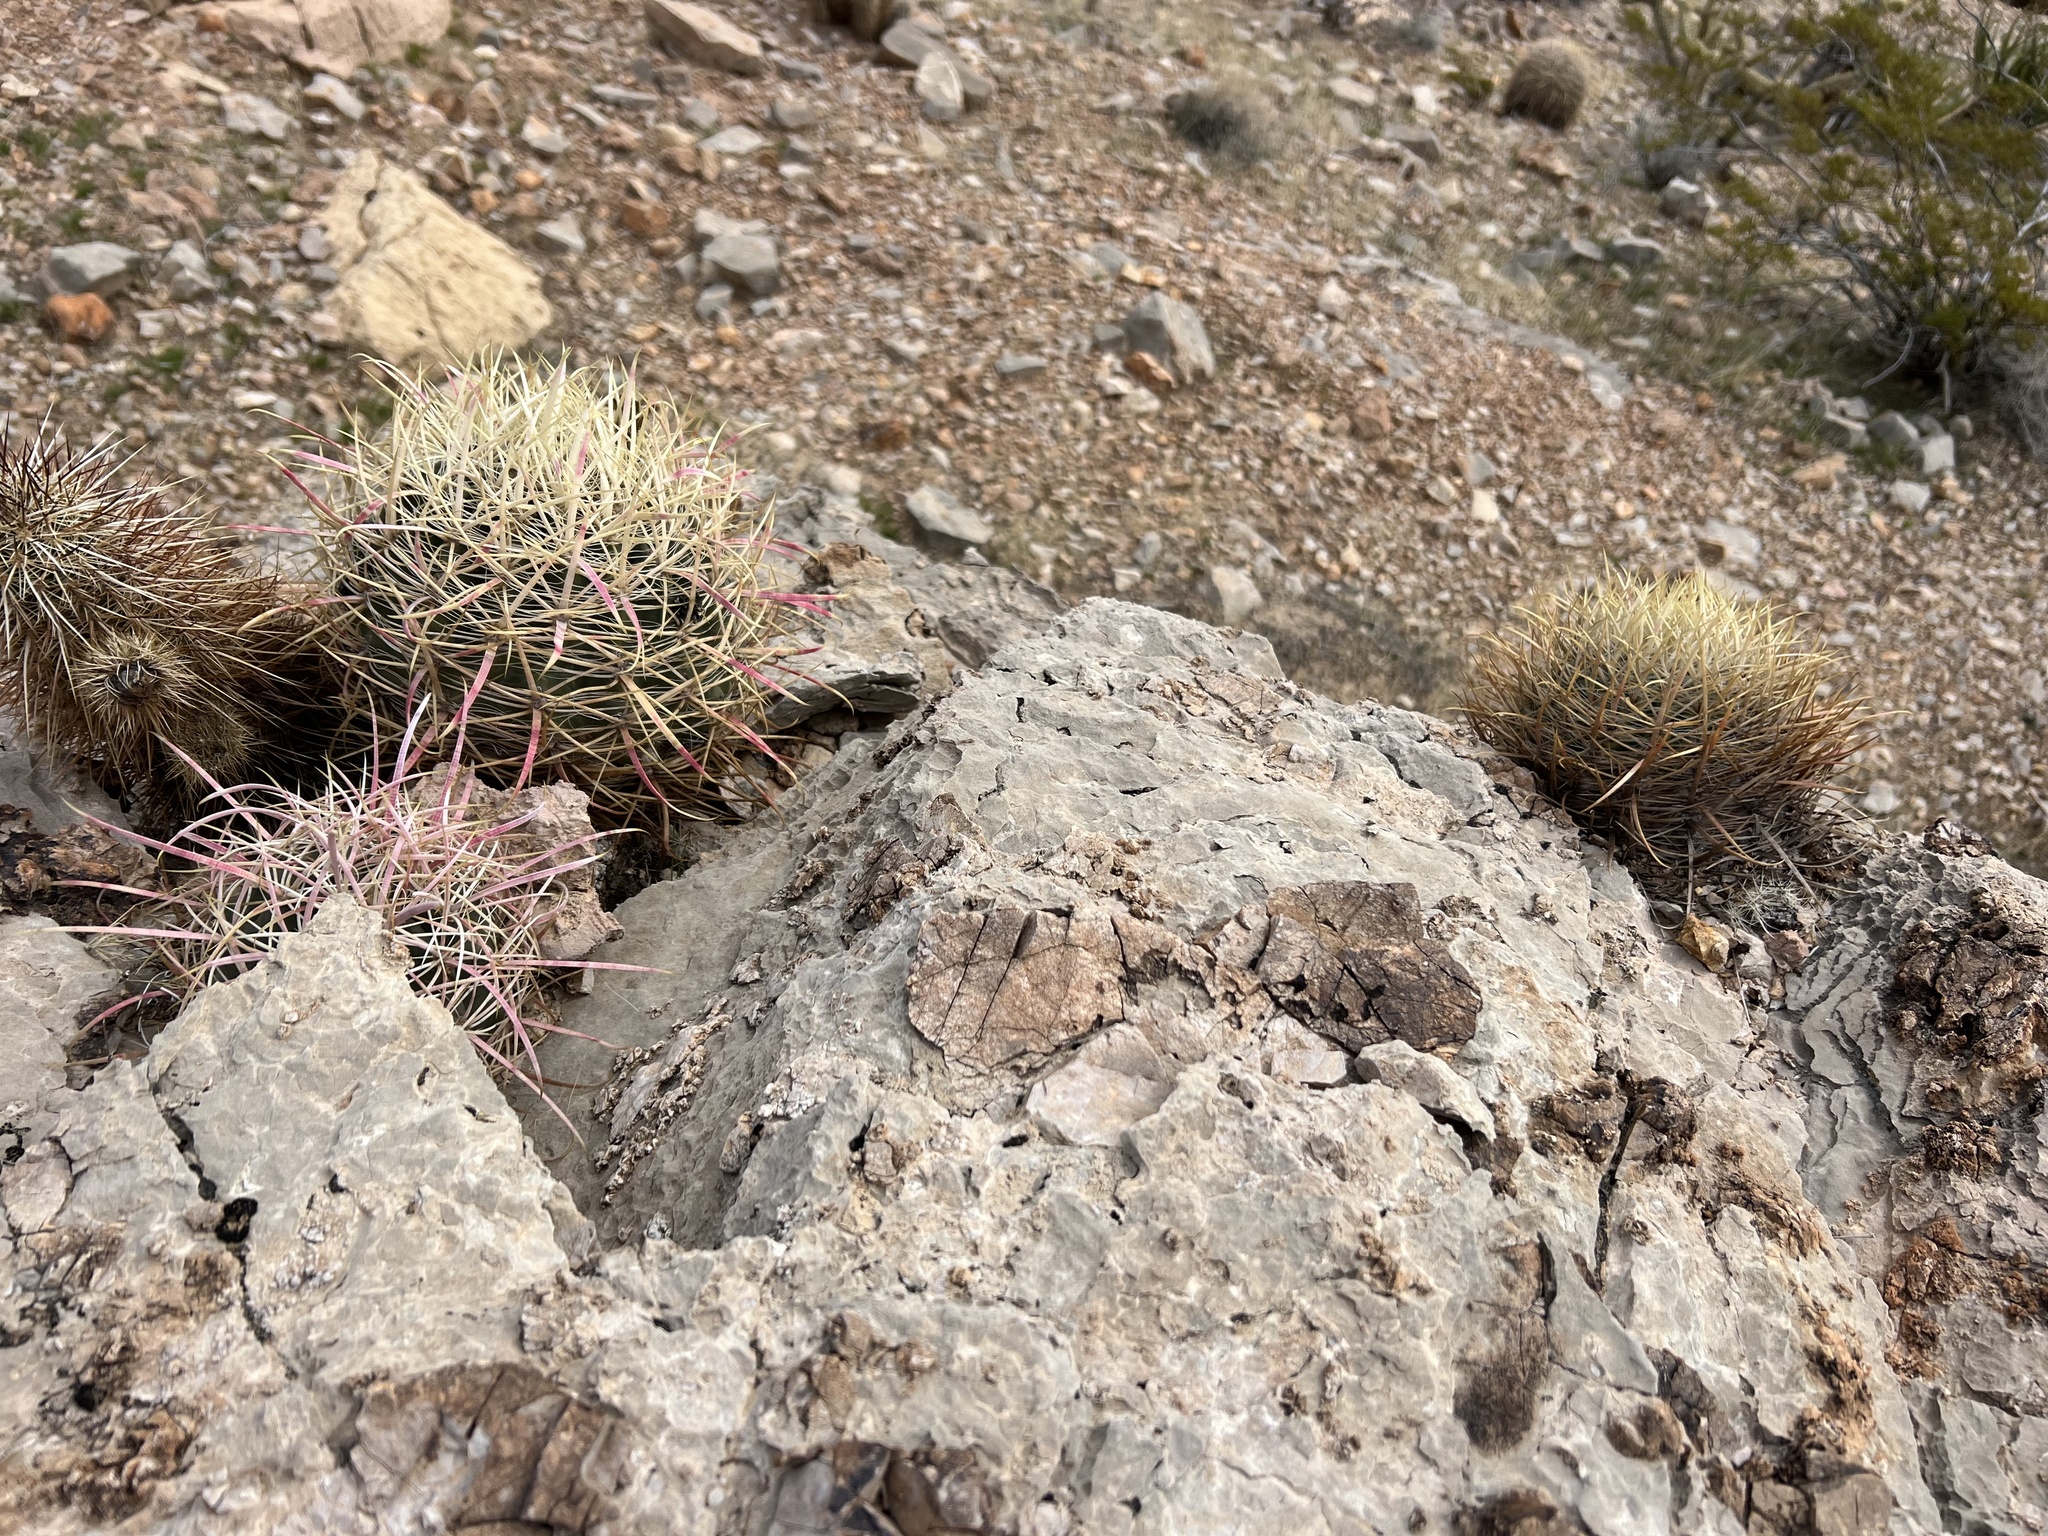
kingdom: Plantae
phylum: Tracheophyta
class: Magnoliopsida
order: Caryophyllales
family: Cactaceae
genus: Ferocactus
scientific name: Ferocactus cylindraceus
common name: California barrel cactus
